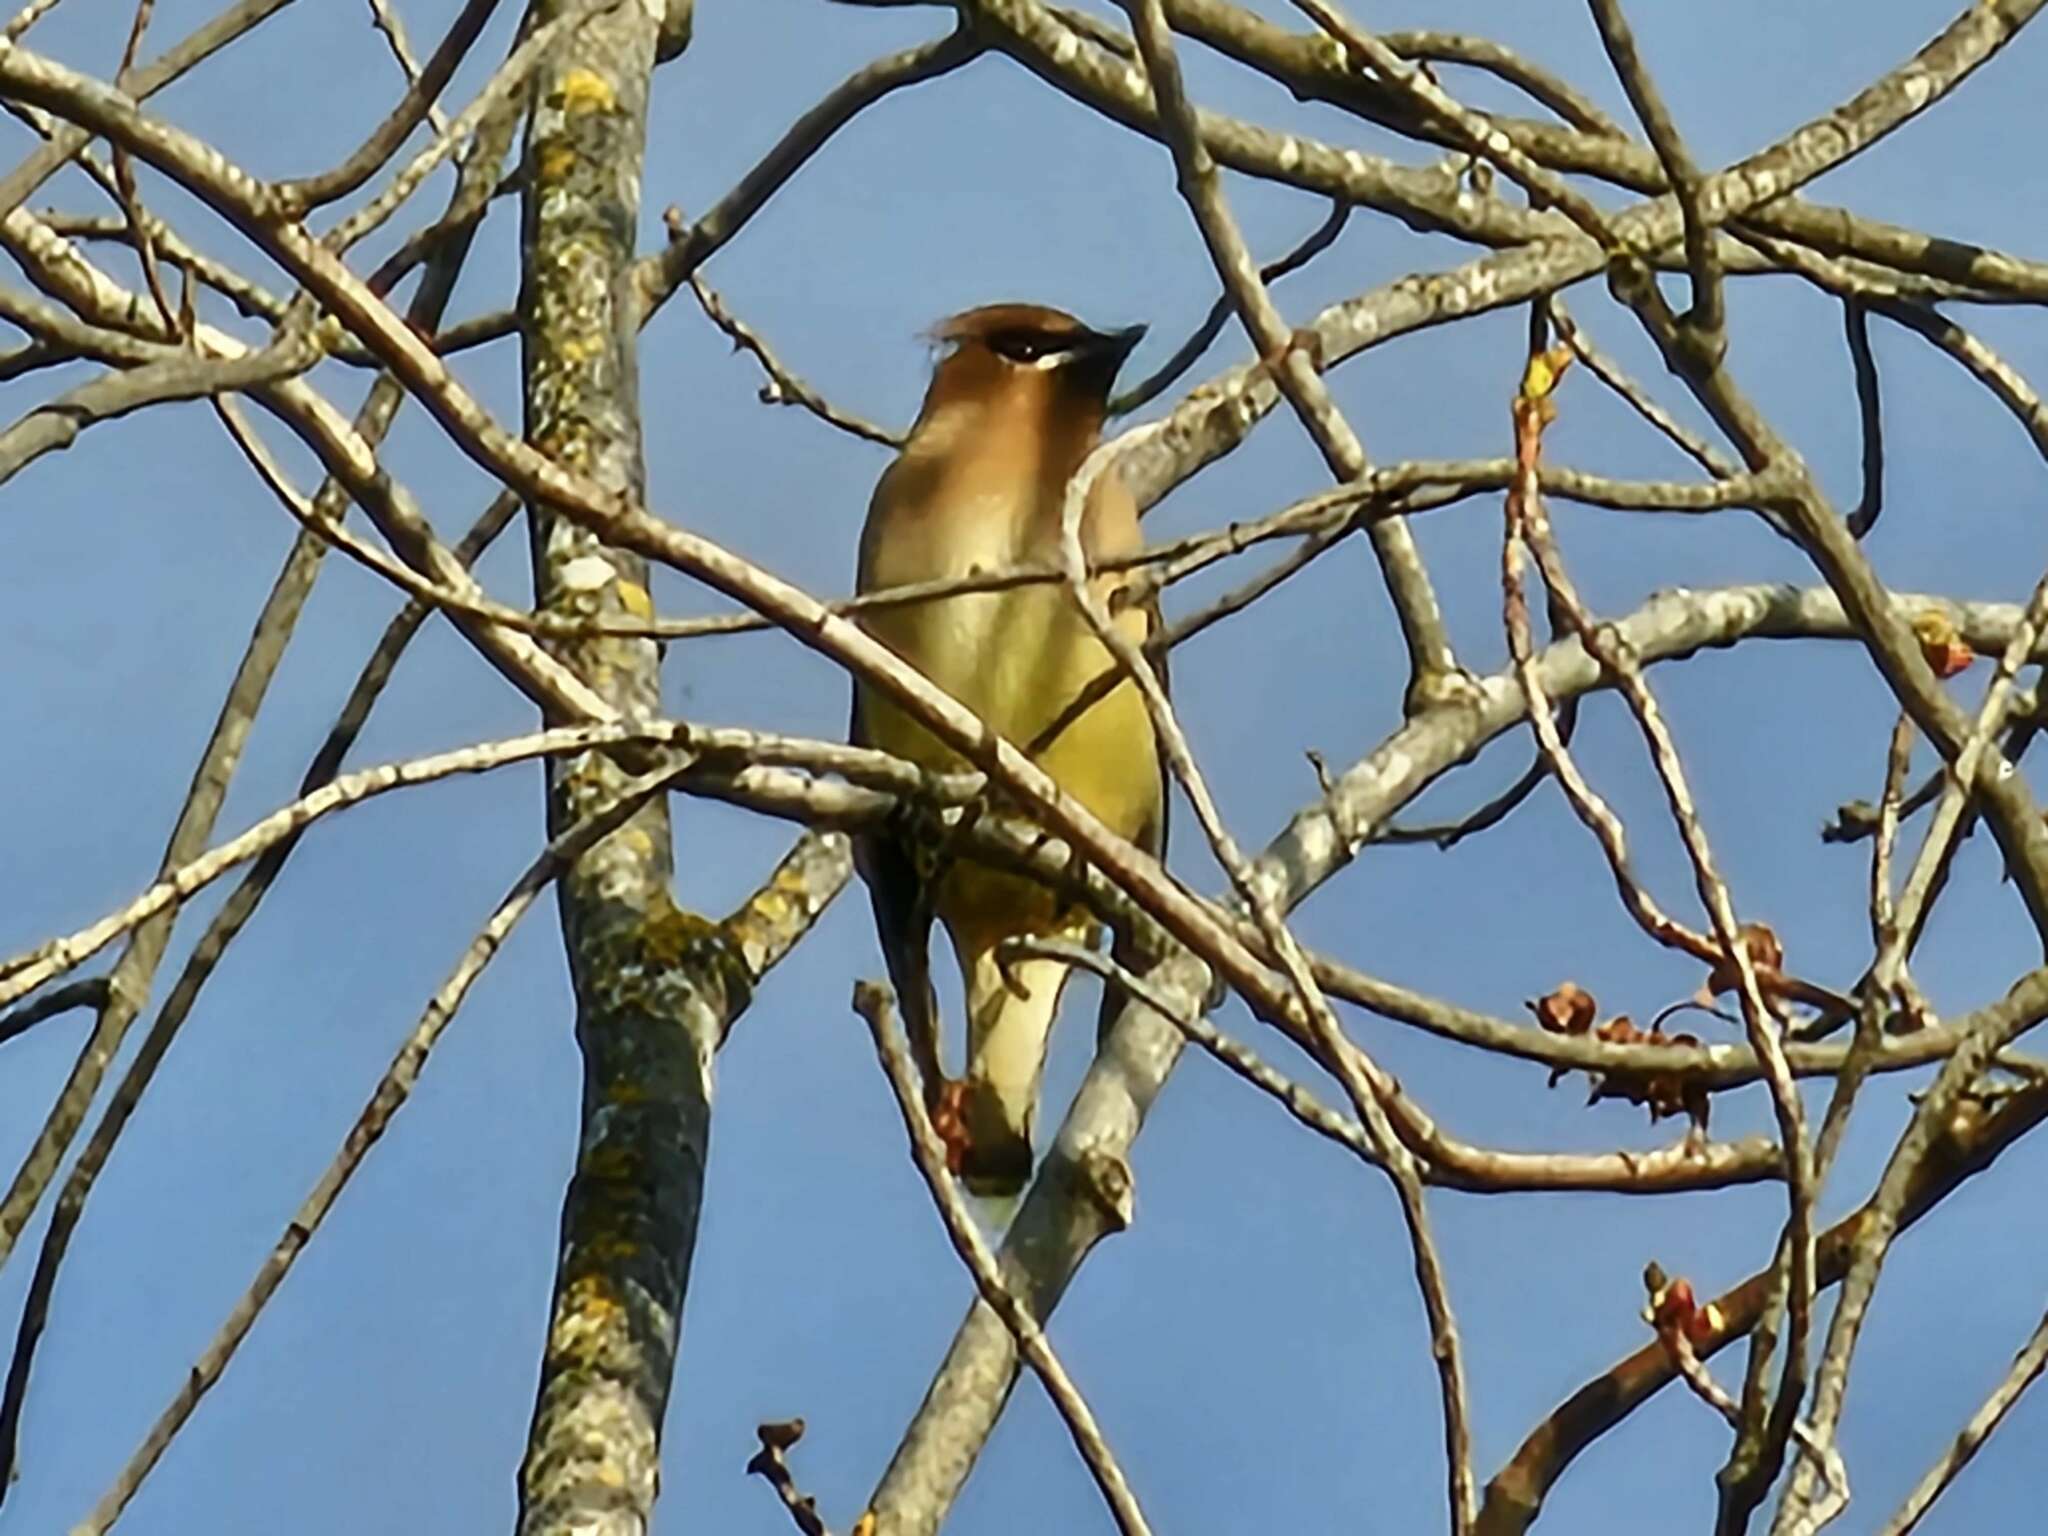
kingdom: Animalia
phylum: Chordata
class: Aves
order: Passeriformes
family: Bombycillidae
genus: Bombycilla
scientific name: Bombycilla cedrorum
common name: Cedar waxwing
